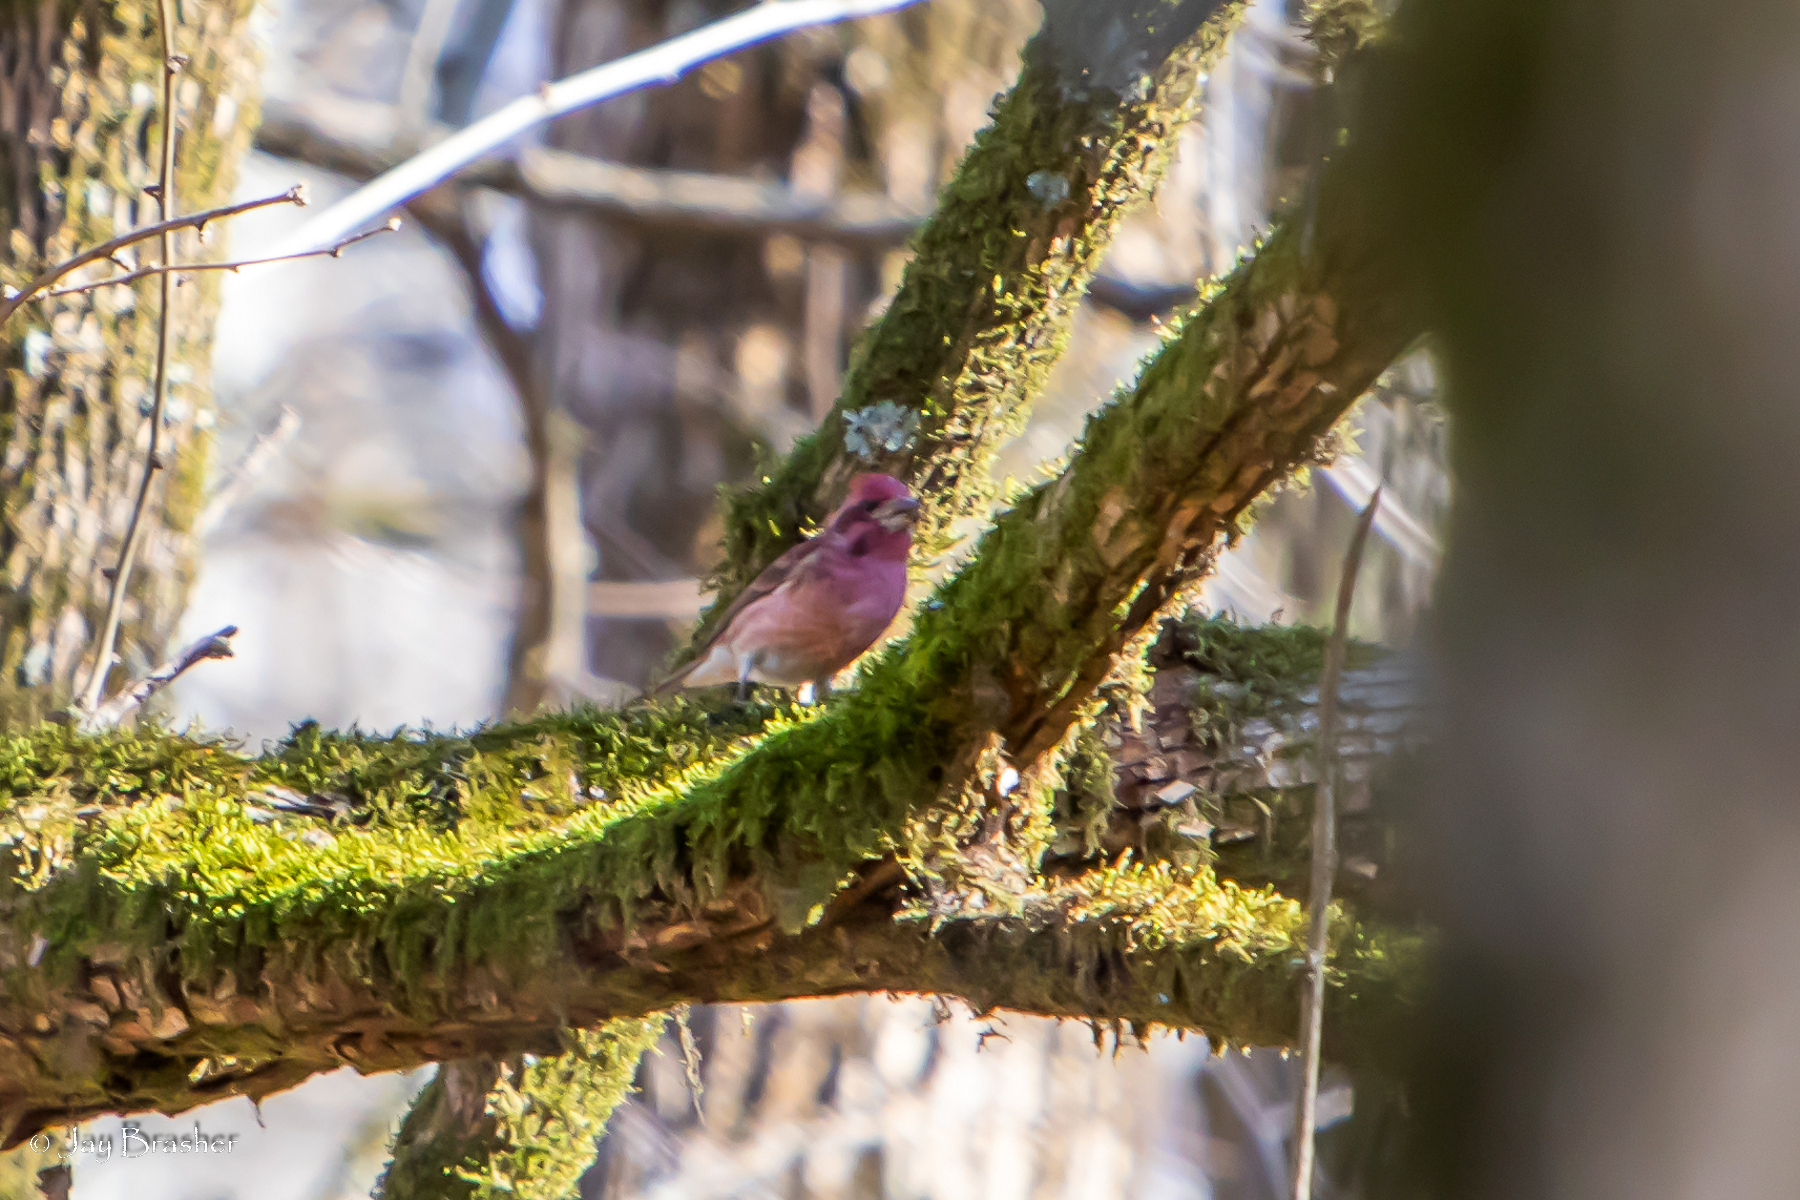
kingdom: Animalia
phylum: Chordata
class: Aves
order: Passeriformes
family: Fringillidae
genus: Haemorhous
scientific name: Haemorhous purpureus
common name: Purple finch
